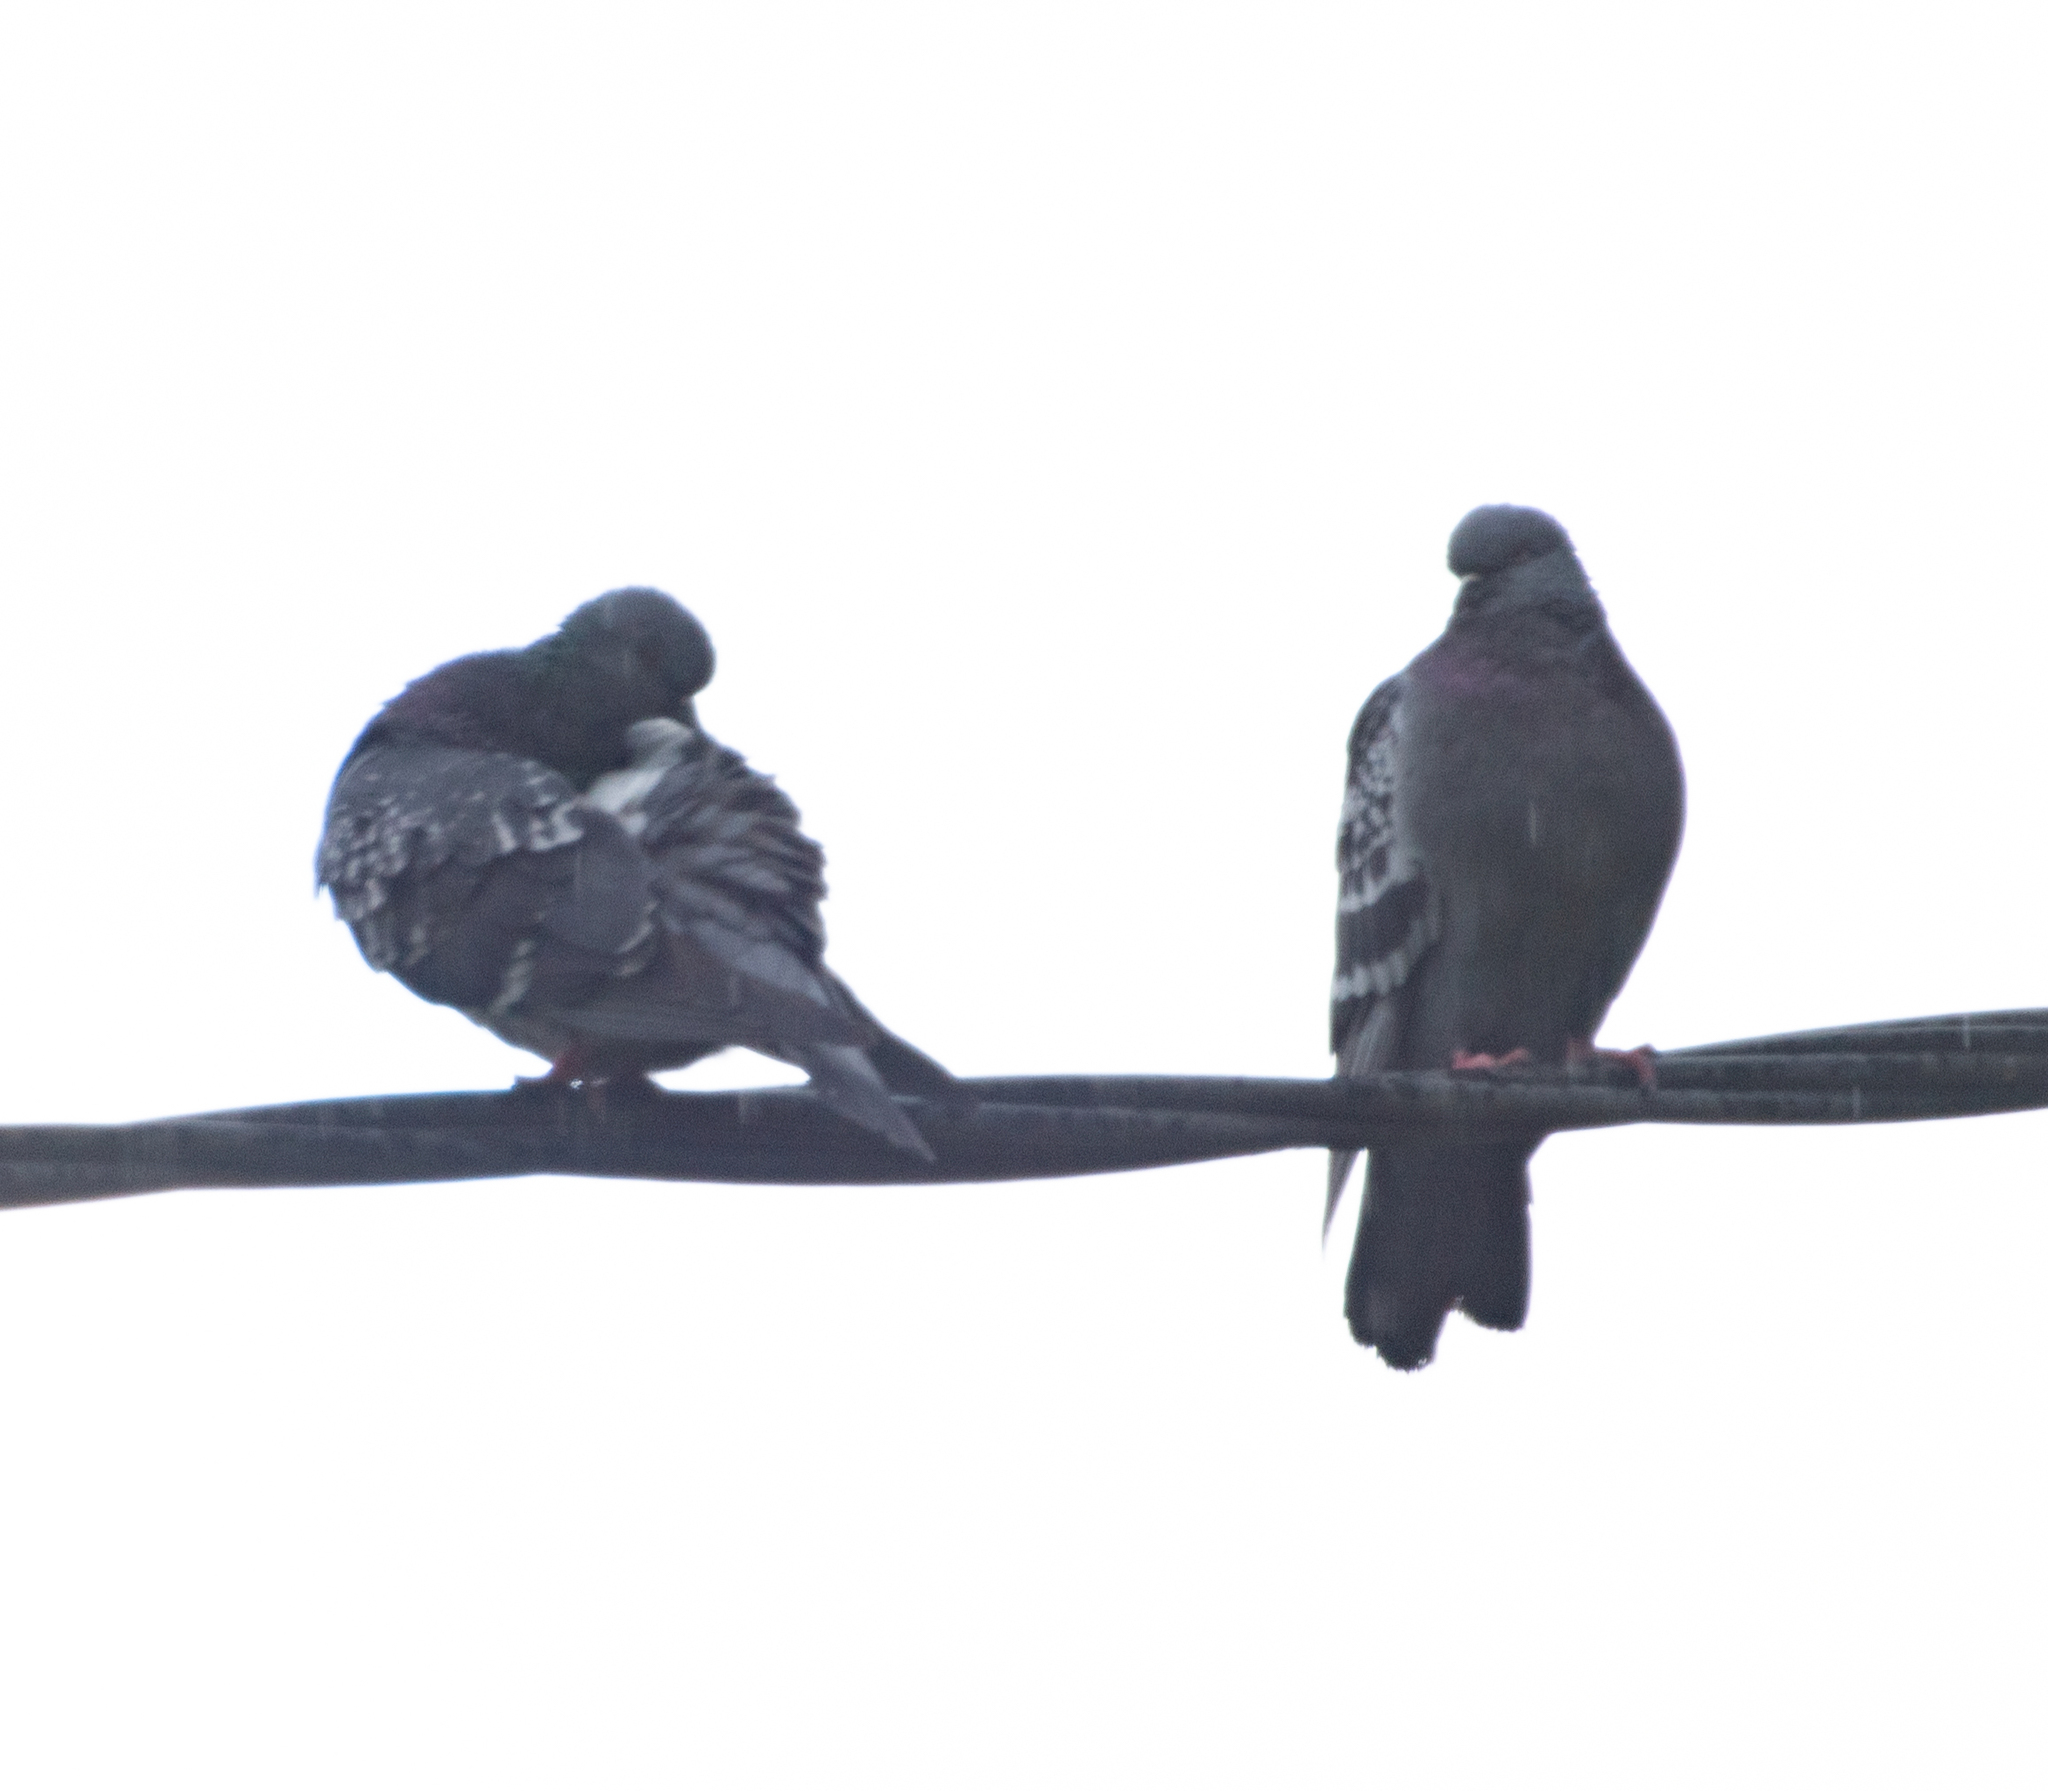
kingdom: Animalia
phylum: Chordata
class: Aves
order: Columbiformes
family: Columbidae
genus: Columba
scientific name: Columba livia
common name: Rock pigeon
